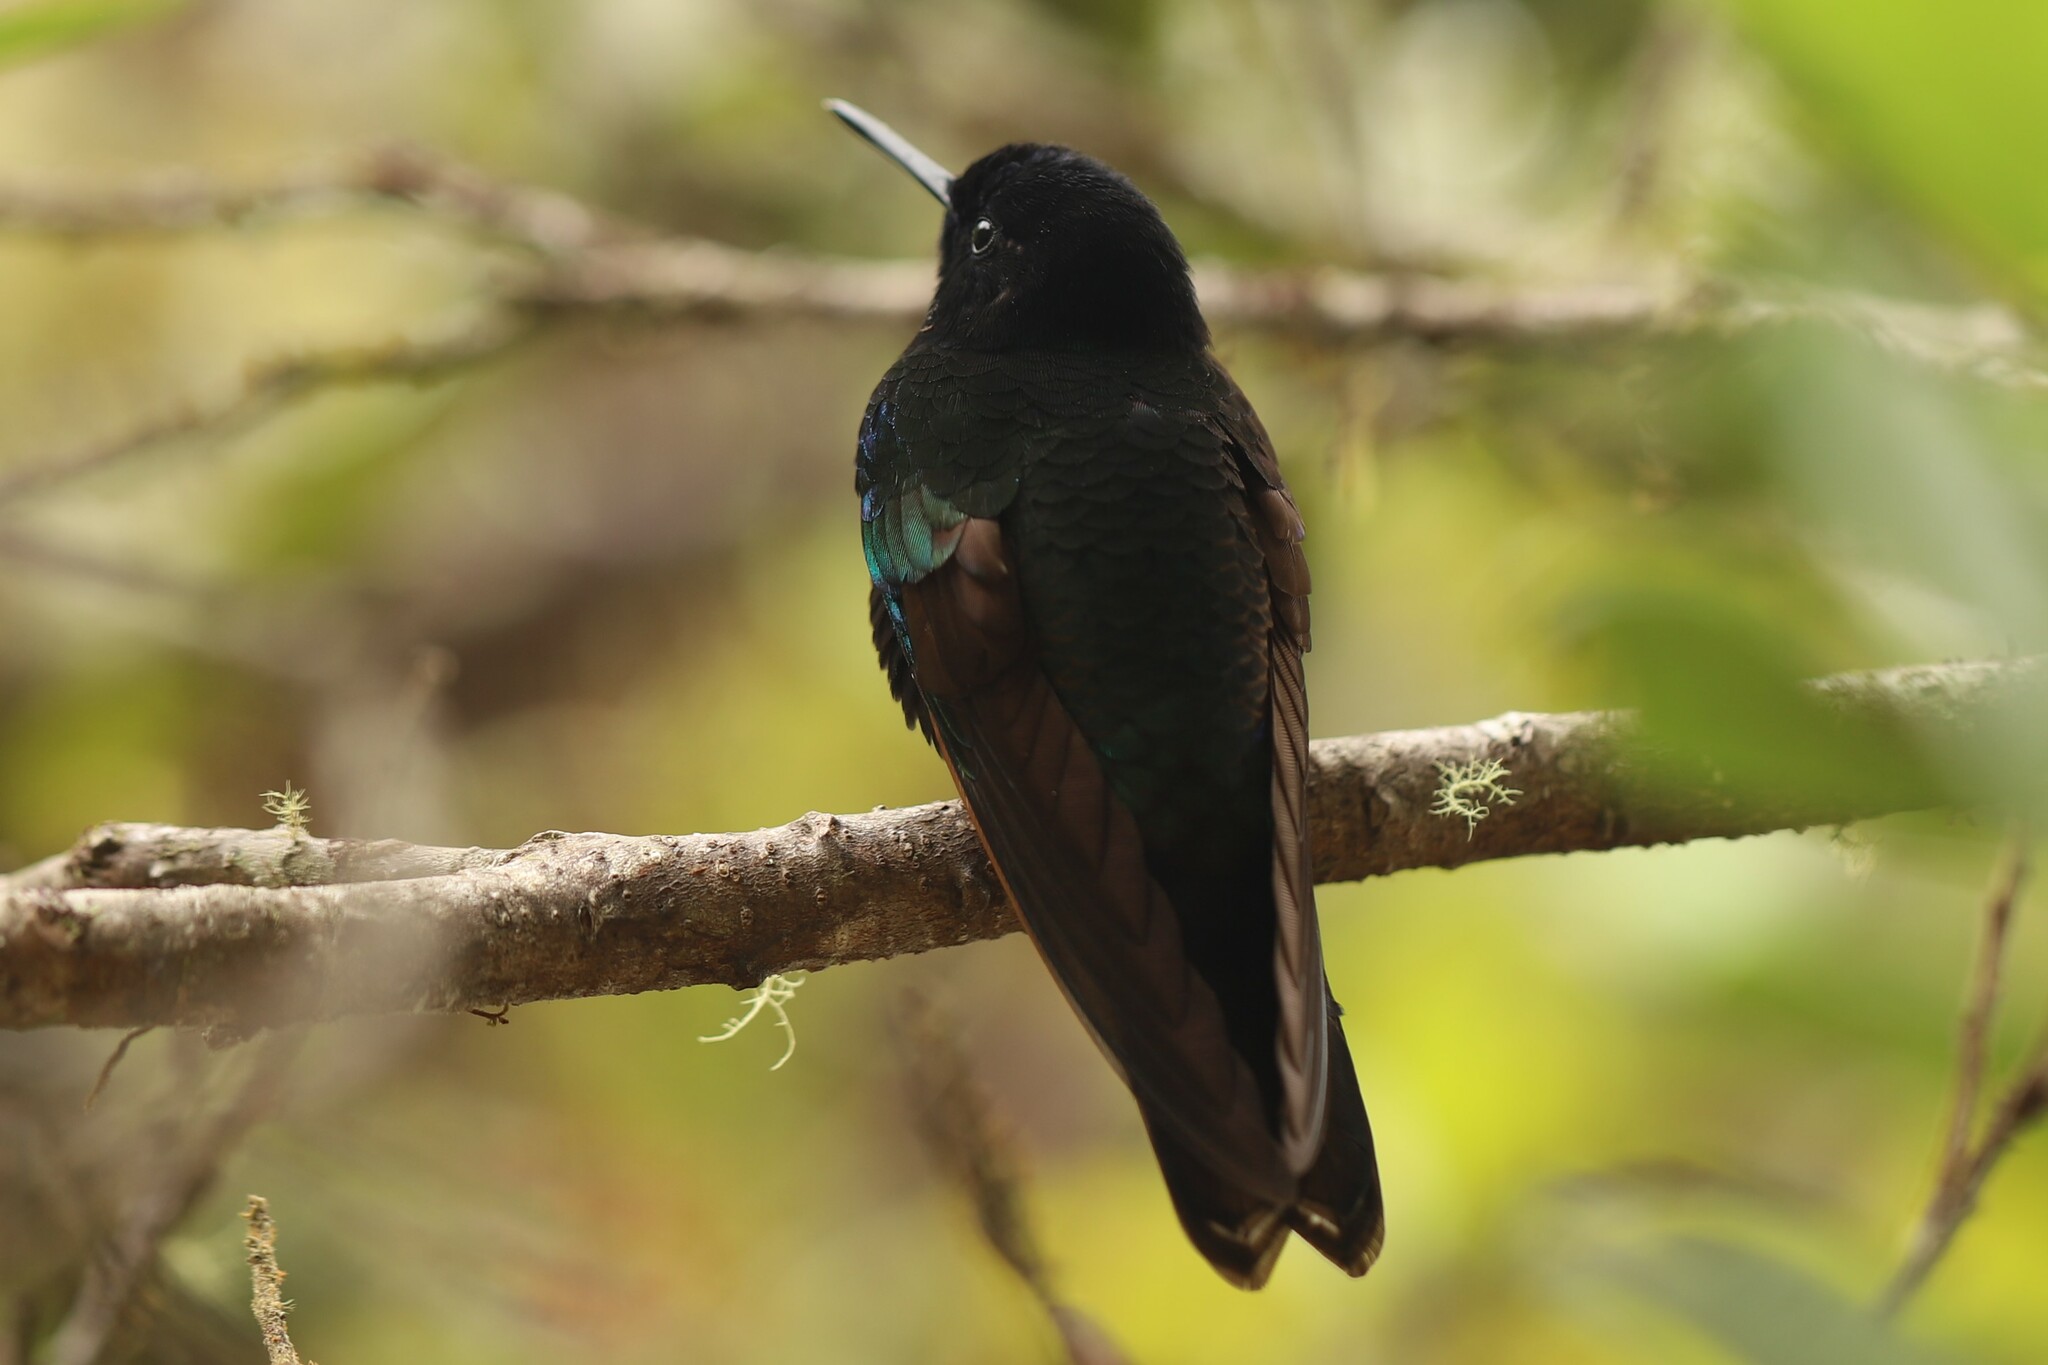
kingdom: Animalia
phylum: Chordata
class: Aves
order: Apodiformes
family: Trochilidae
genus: Boissonneaua
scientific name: Boissonneaua jardini
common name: Velvet-purple coronet
